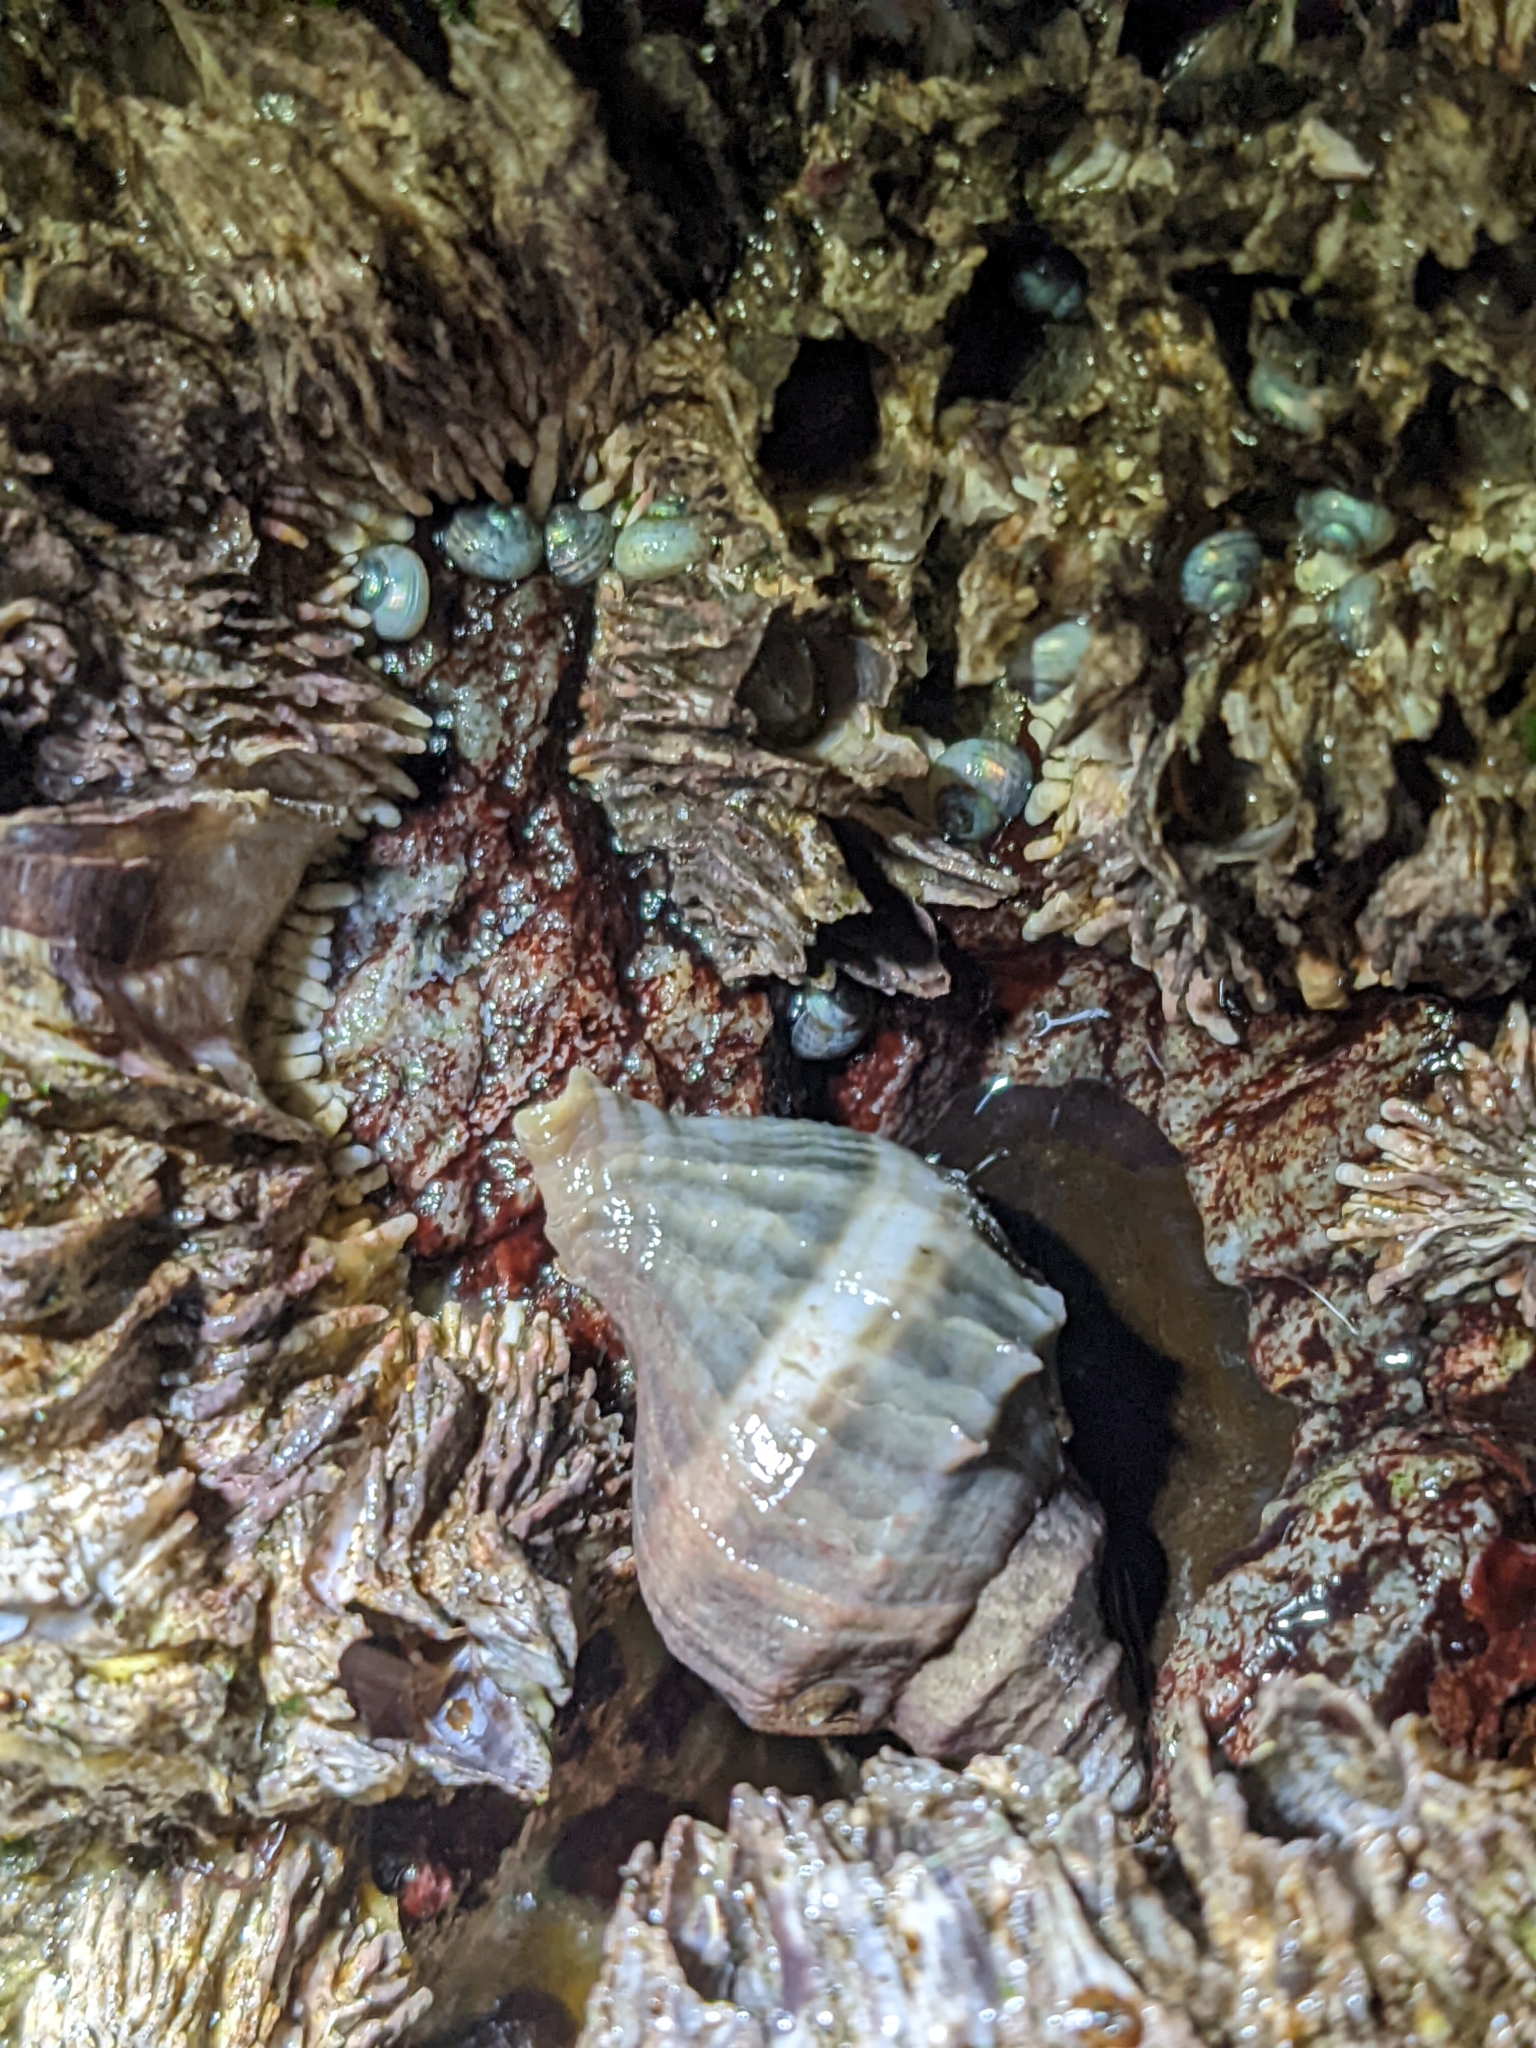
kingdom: Animalia
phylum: Mollusca
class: Gastropoda
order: Neogastropoda
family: Muricidae
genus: Nucella
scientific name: Nucella lamellosa
